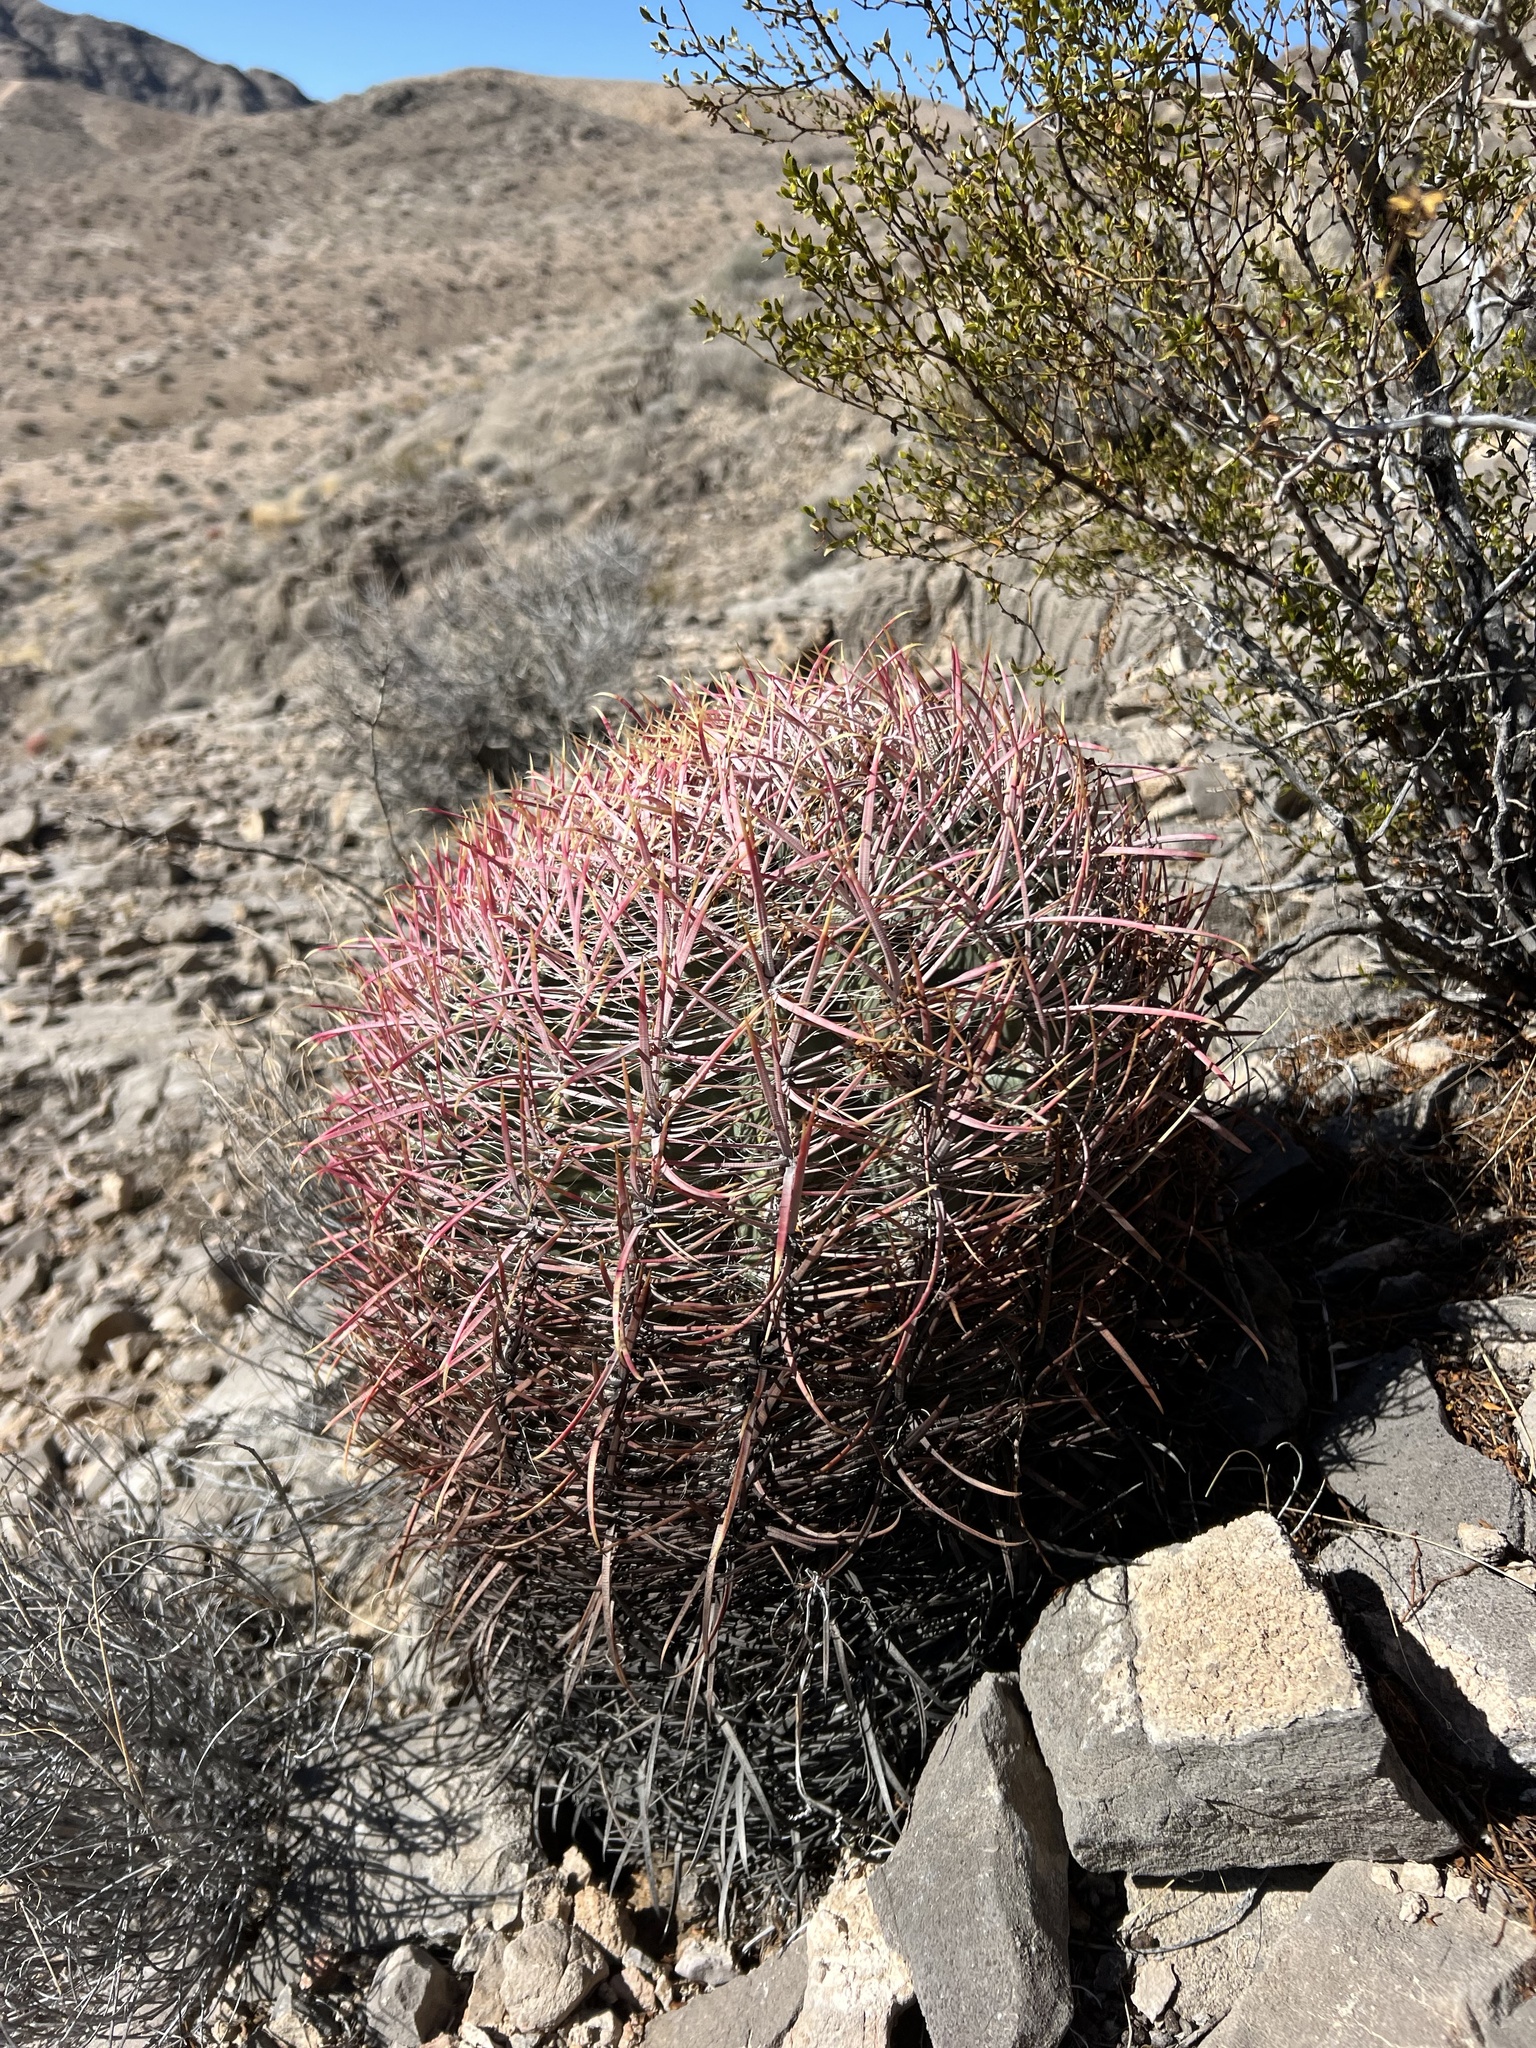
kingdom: Plantae
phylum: Tracheophyta
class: Magnoliopsida
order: Caryophyllales
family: Cactaceae
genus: Ferocactus
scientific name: Ferocactus cylindraceus
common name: California barrel cactus
